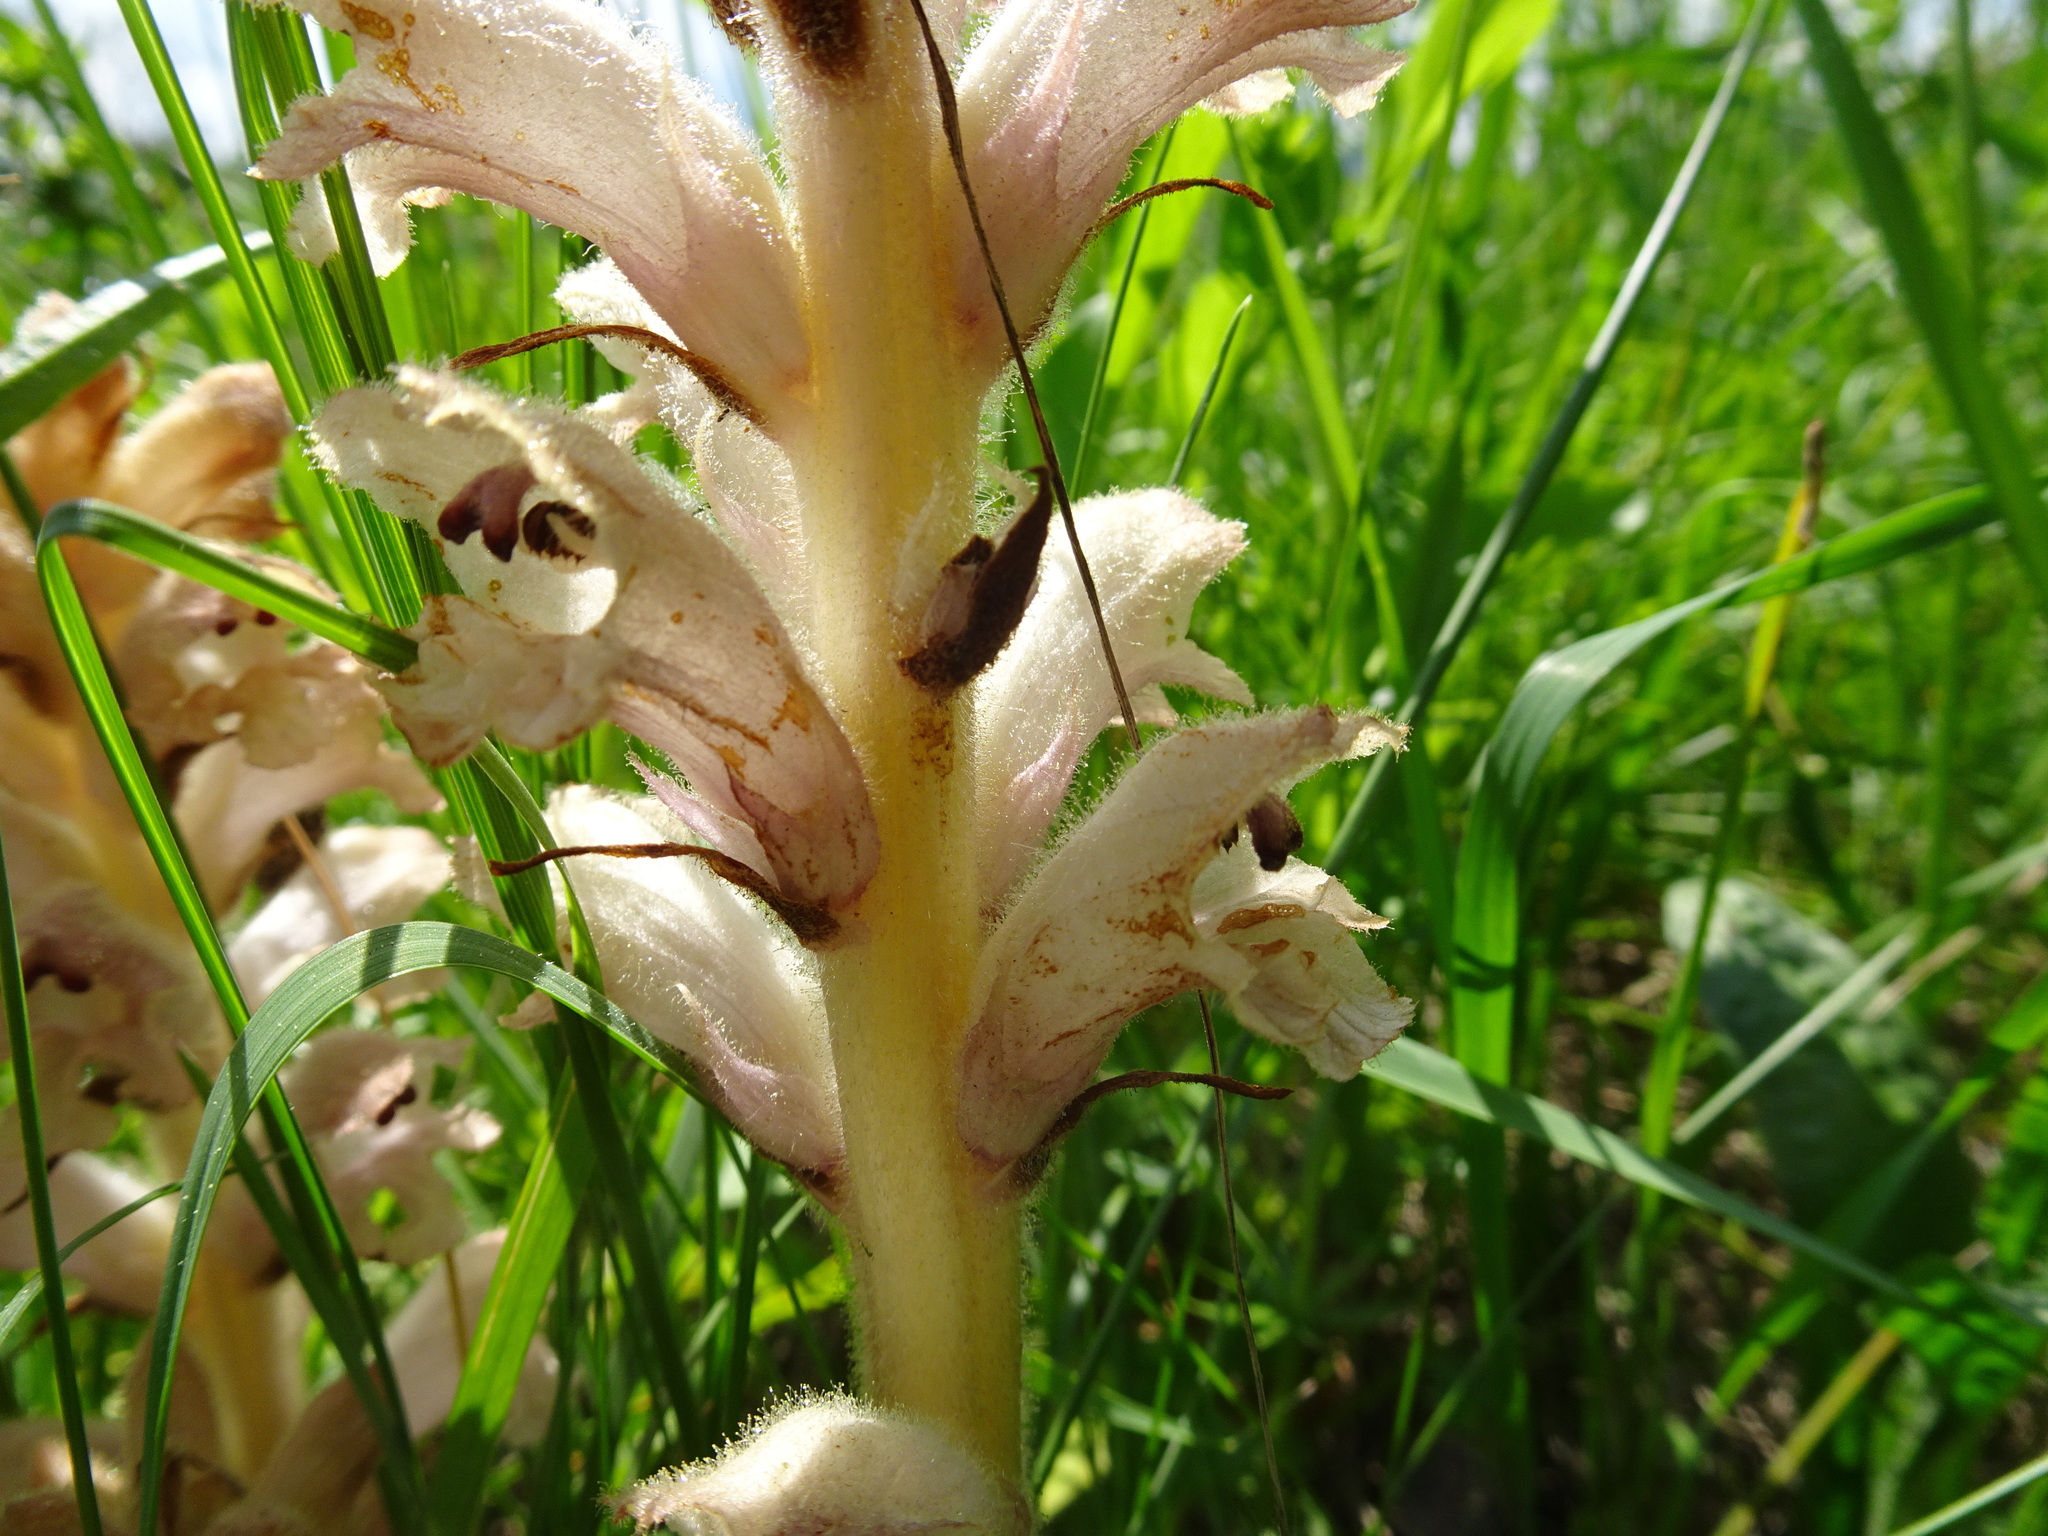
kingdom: Plantae
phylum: Tracheophyta
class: Magnoliopsida
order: Lamiales
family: Orobanchaceae
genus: Orobanche
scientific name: Orobanche caryophyllacea
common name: Bedstraw broomrape
